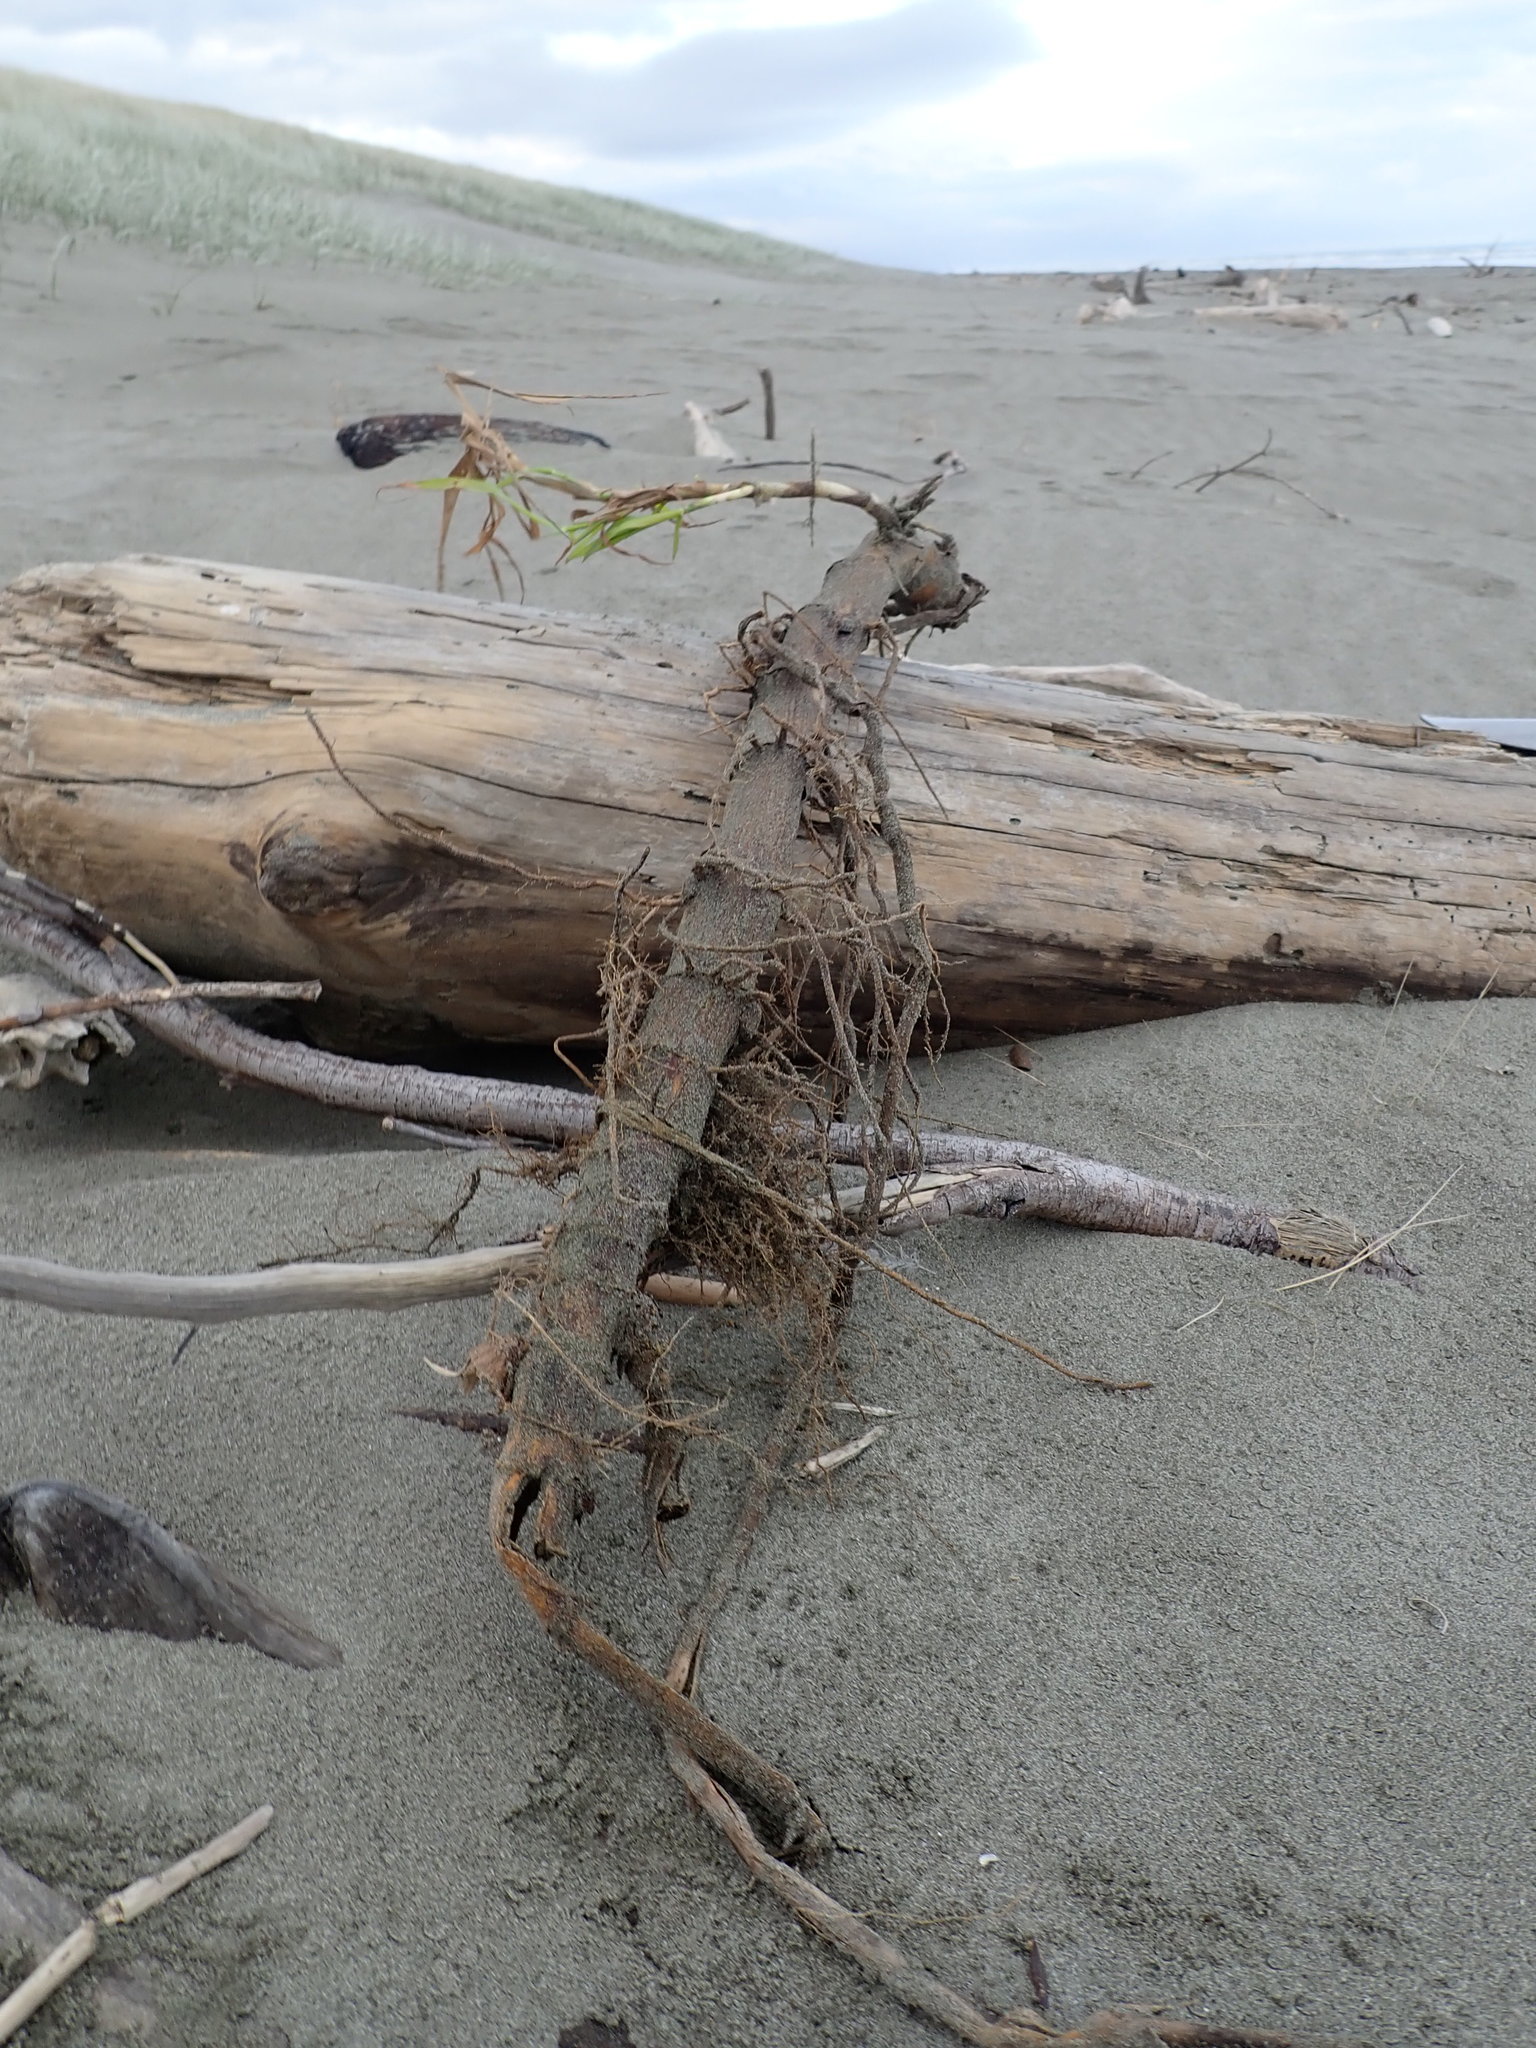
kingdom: Plantae
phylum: Tracheophyta
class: Liliopsida
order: Poales
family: Poaceae
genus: Phragmites
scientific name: Phragmites karka
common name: Tropical reed
